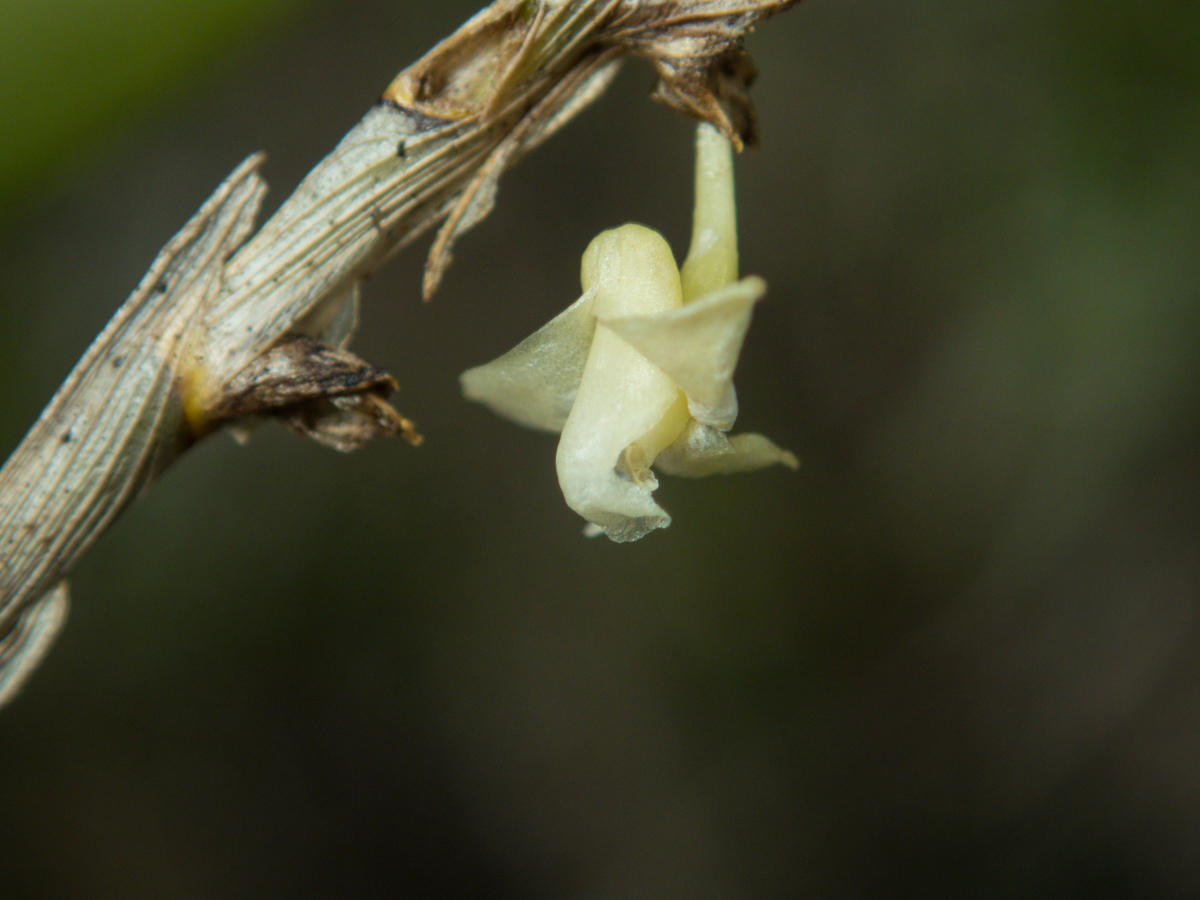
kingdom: Plantae
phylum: Tracheophyta
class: Liliopsida
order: Asparagales
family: Orchidaceae
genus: Dendrobium
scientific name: Dendrobium aloifolium
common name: Aloe-like dendrobium
